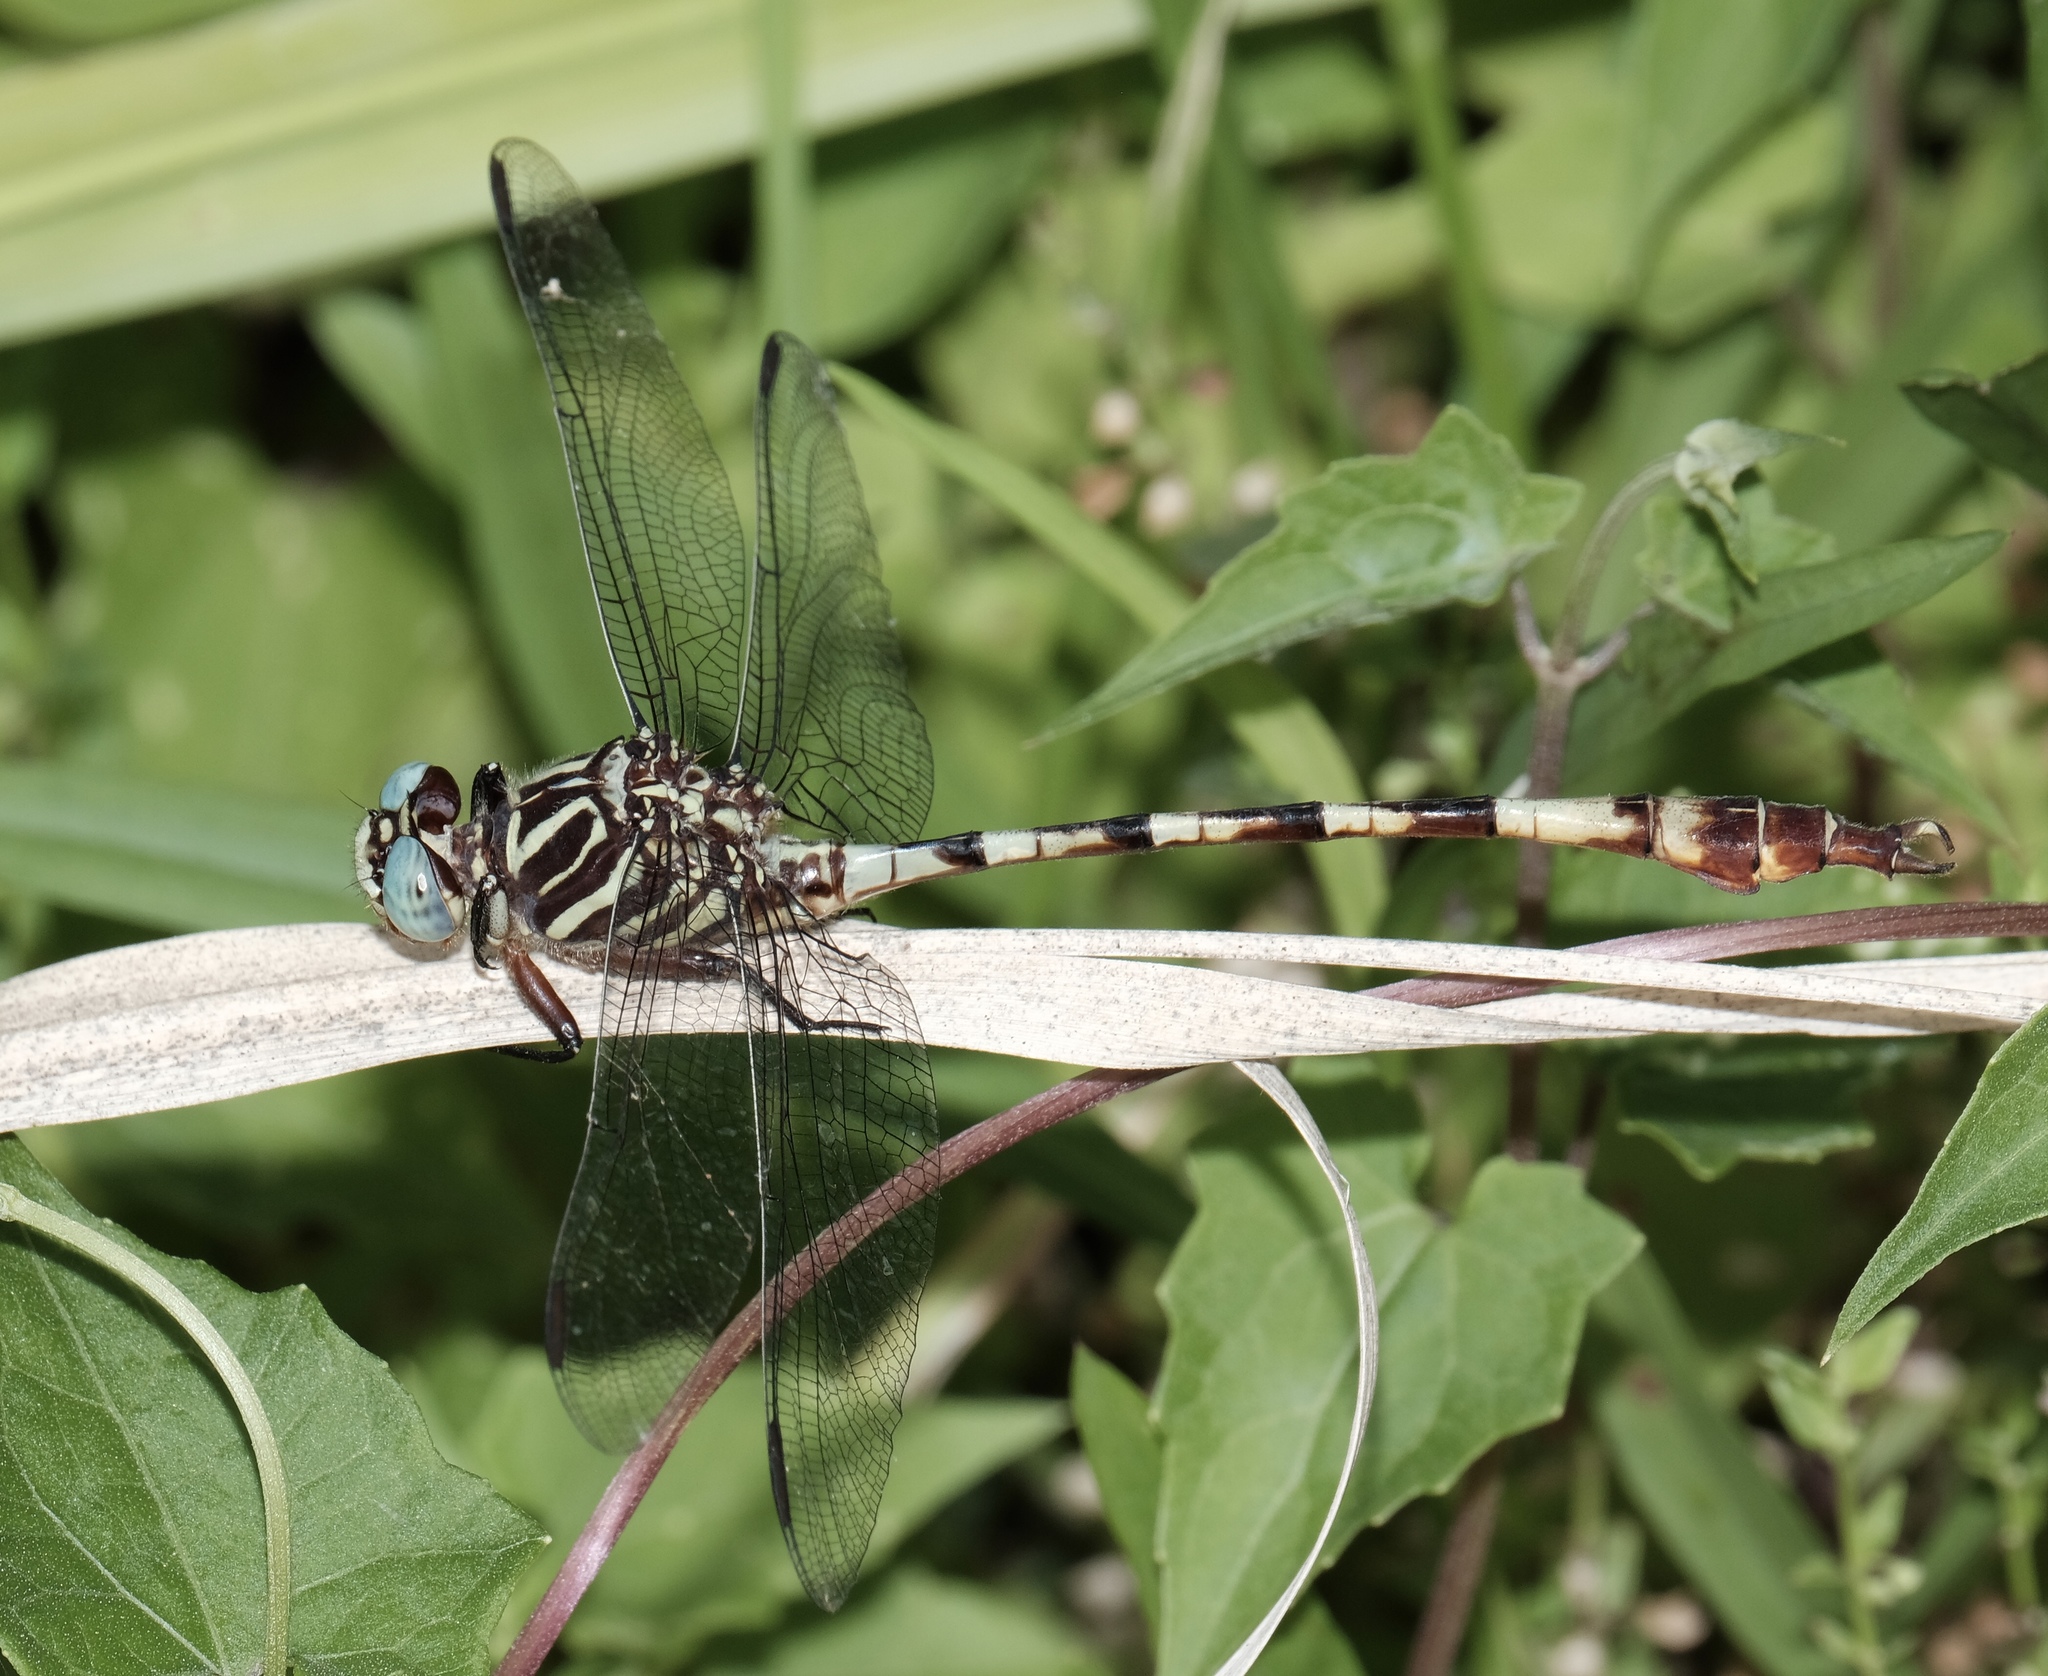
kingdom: Animalia
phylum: Arthropoda
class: Insecta
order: Odonata
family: Gomphidae
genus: Aphylla
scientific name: Aphylla angustifolia
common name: Broad-striped forceptail
